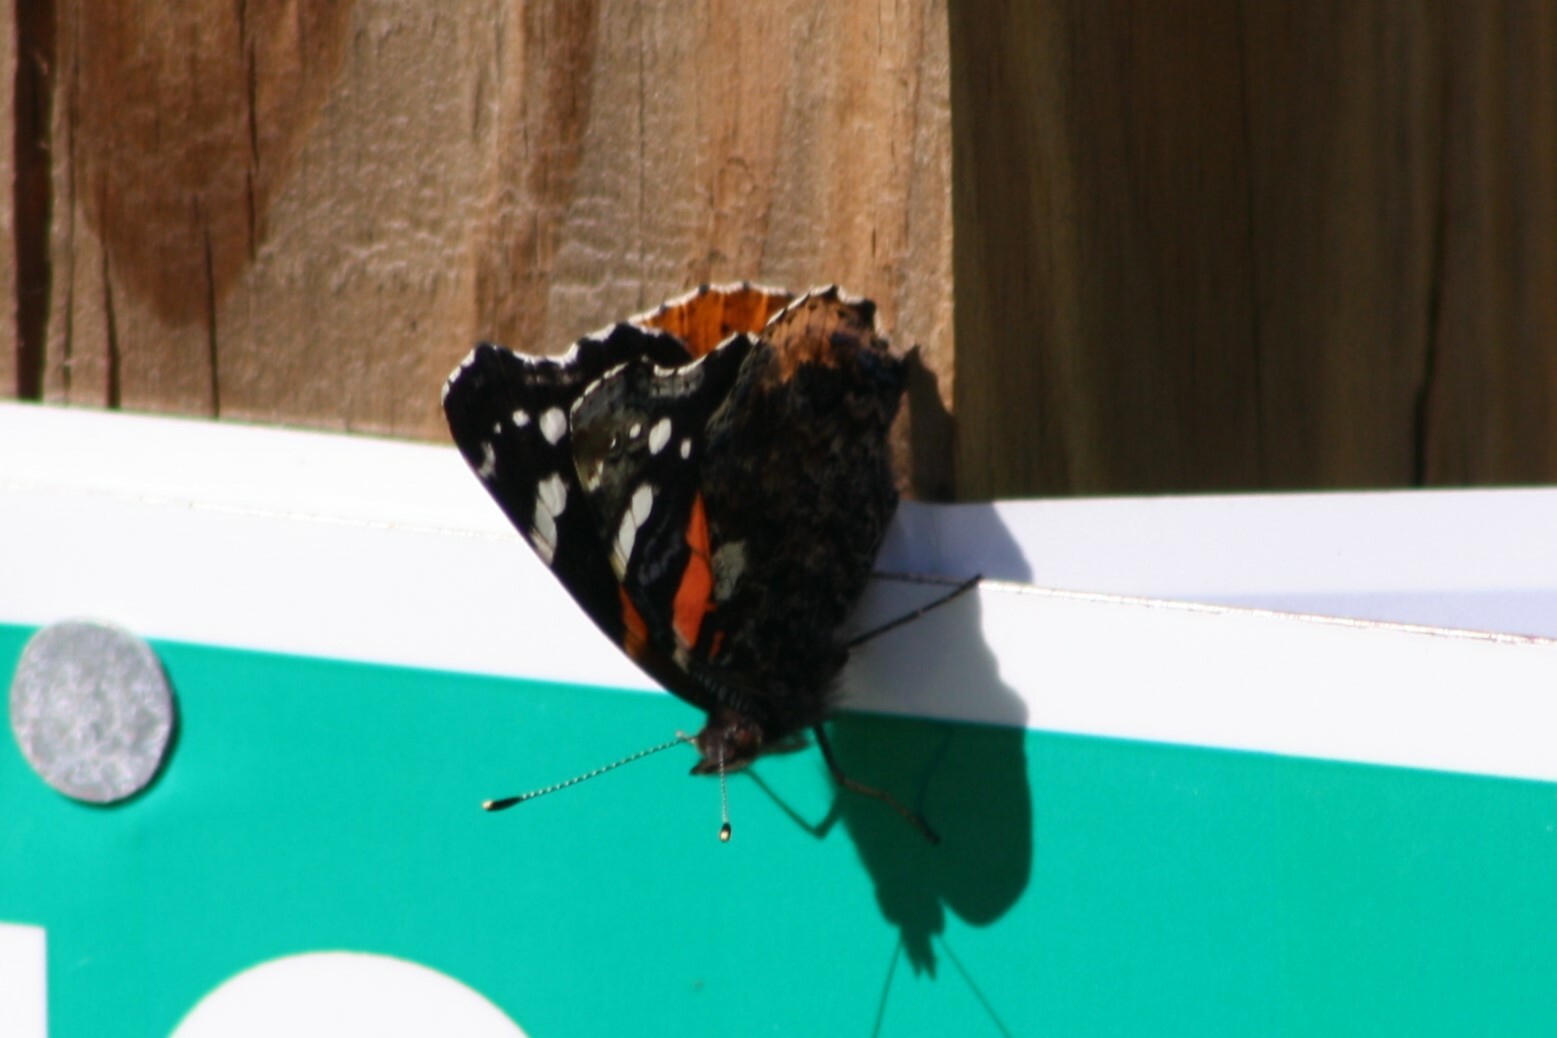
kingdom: Animalia
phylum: Arthropoda
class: Insecta
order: Lepidoptera
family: Nymphalidae
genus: Vanessa
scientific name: Vanessa atalanta
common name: Red admiral
